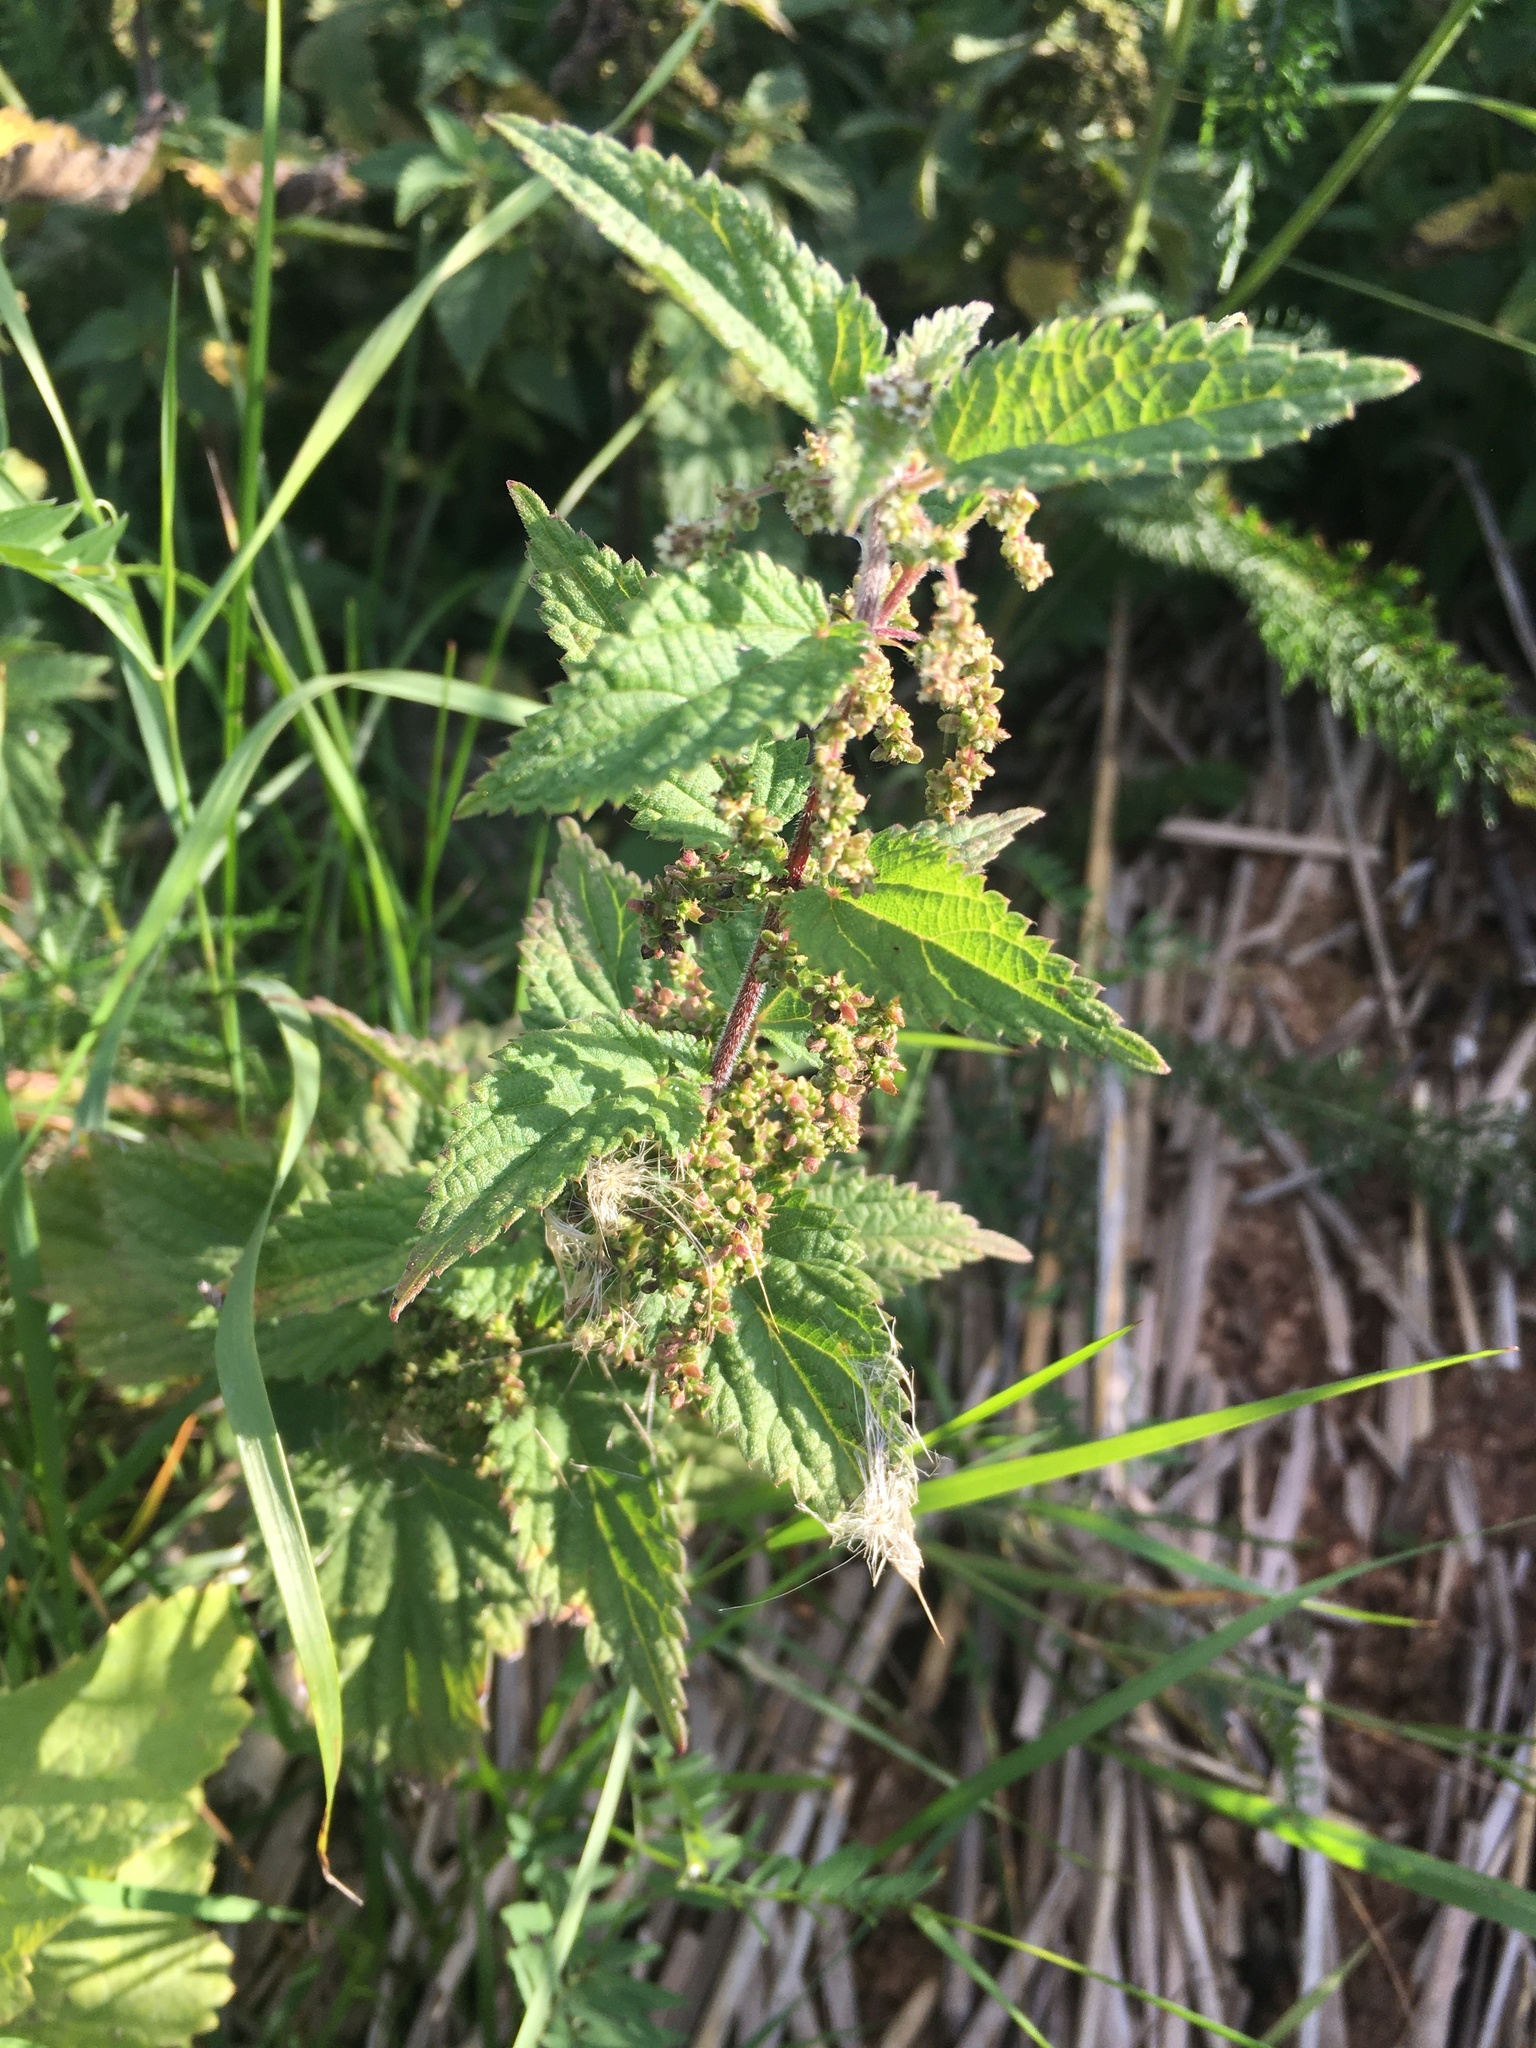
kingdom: Plantae
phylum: Tracheophyta
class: Magnoliopsida
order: Rosales
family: Urticaceae
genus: Urtica
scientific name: Urtica dioica
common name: Common nettle
